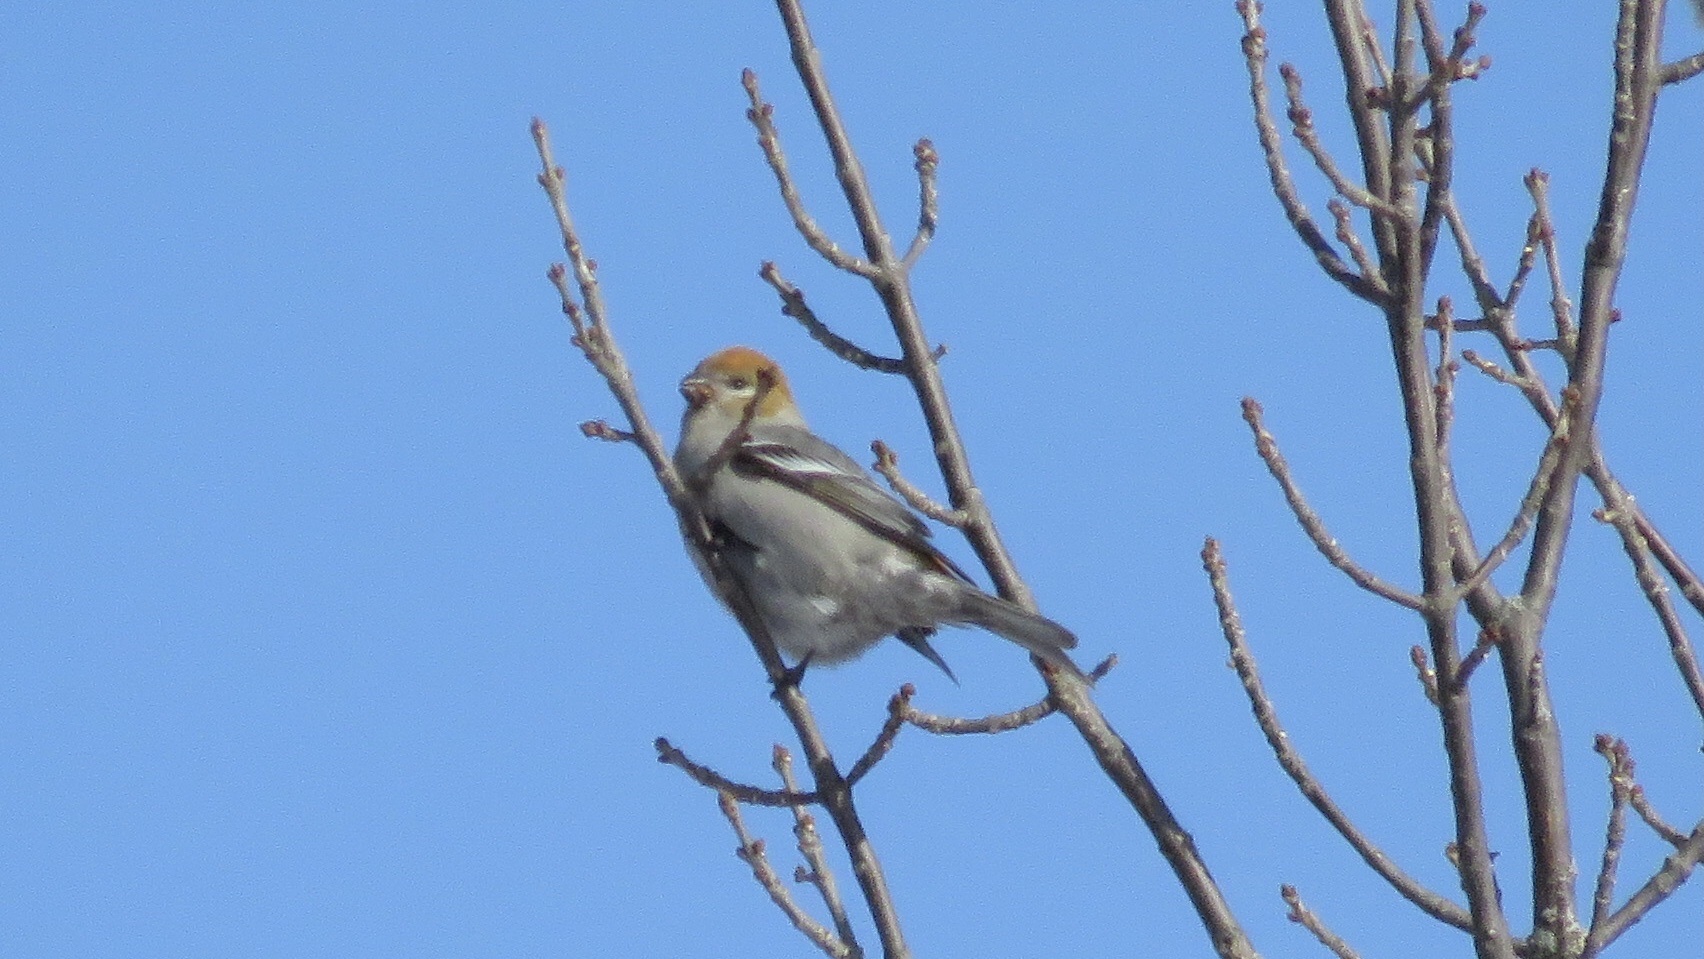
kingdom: Animalia
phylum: Chordata
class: Aves
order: Passeriformes
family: Fringillidae
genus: Pinicola
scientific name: Pinicola enucleator
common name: Pine grosbeak
